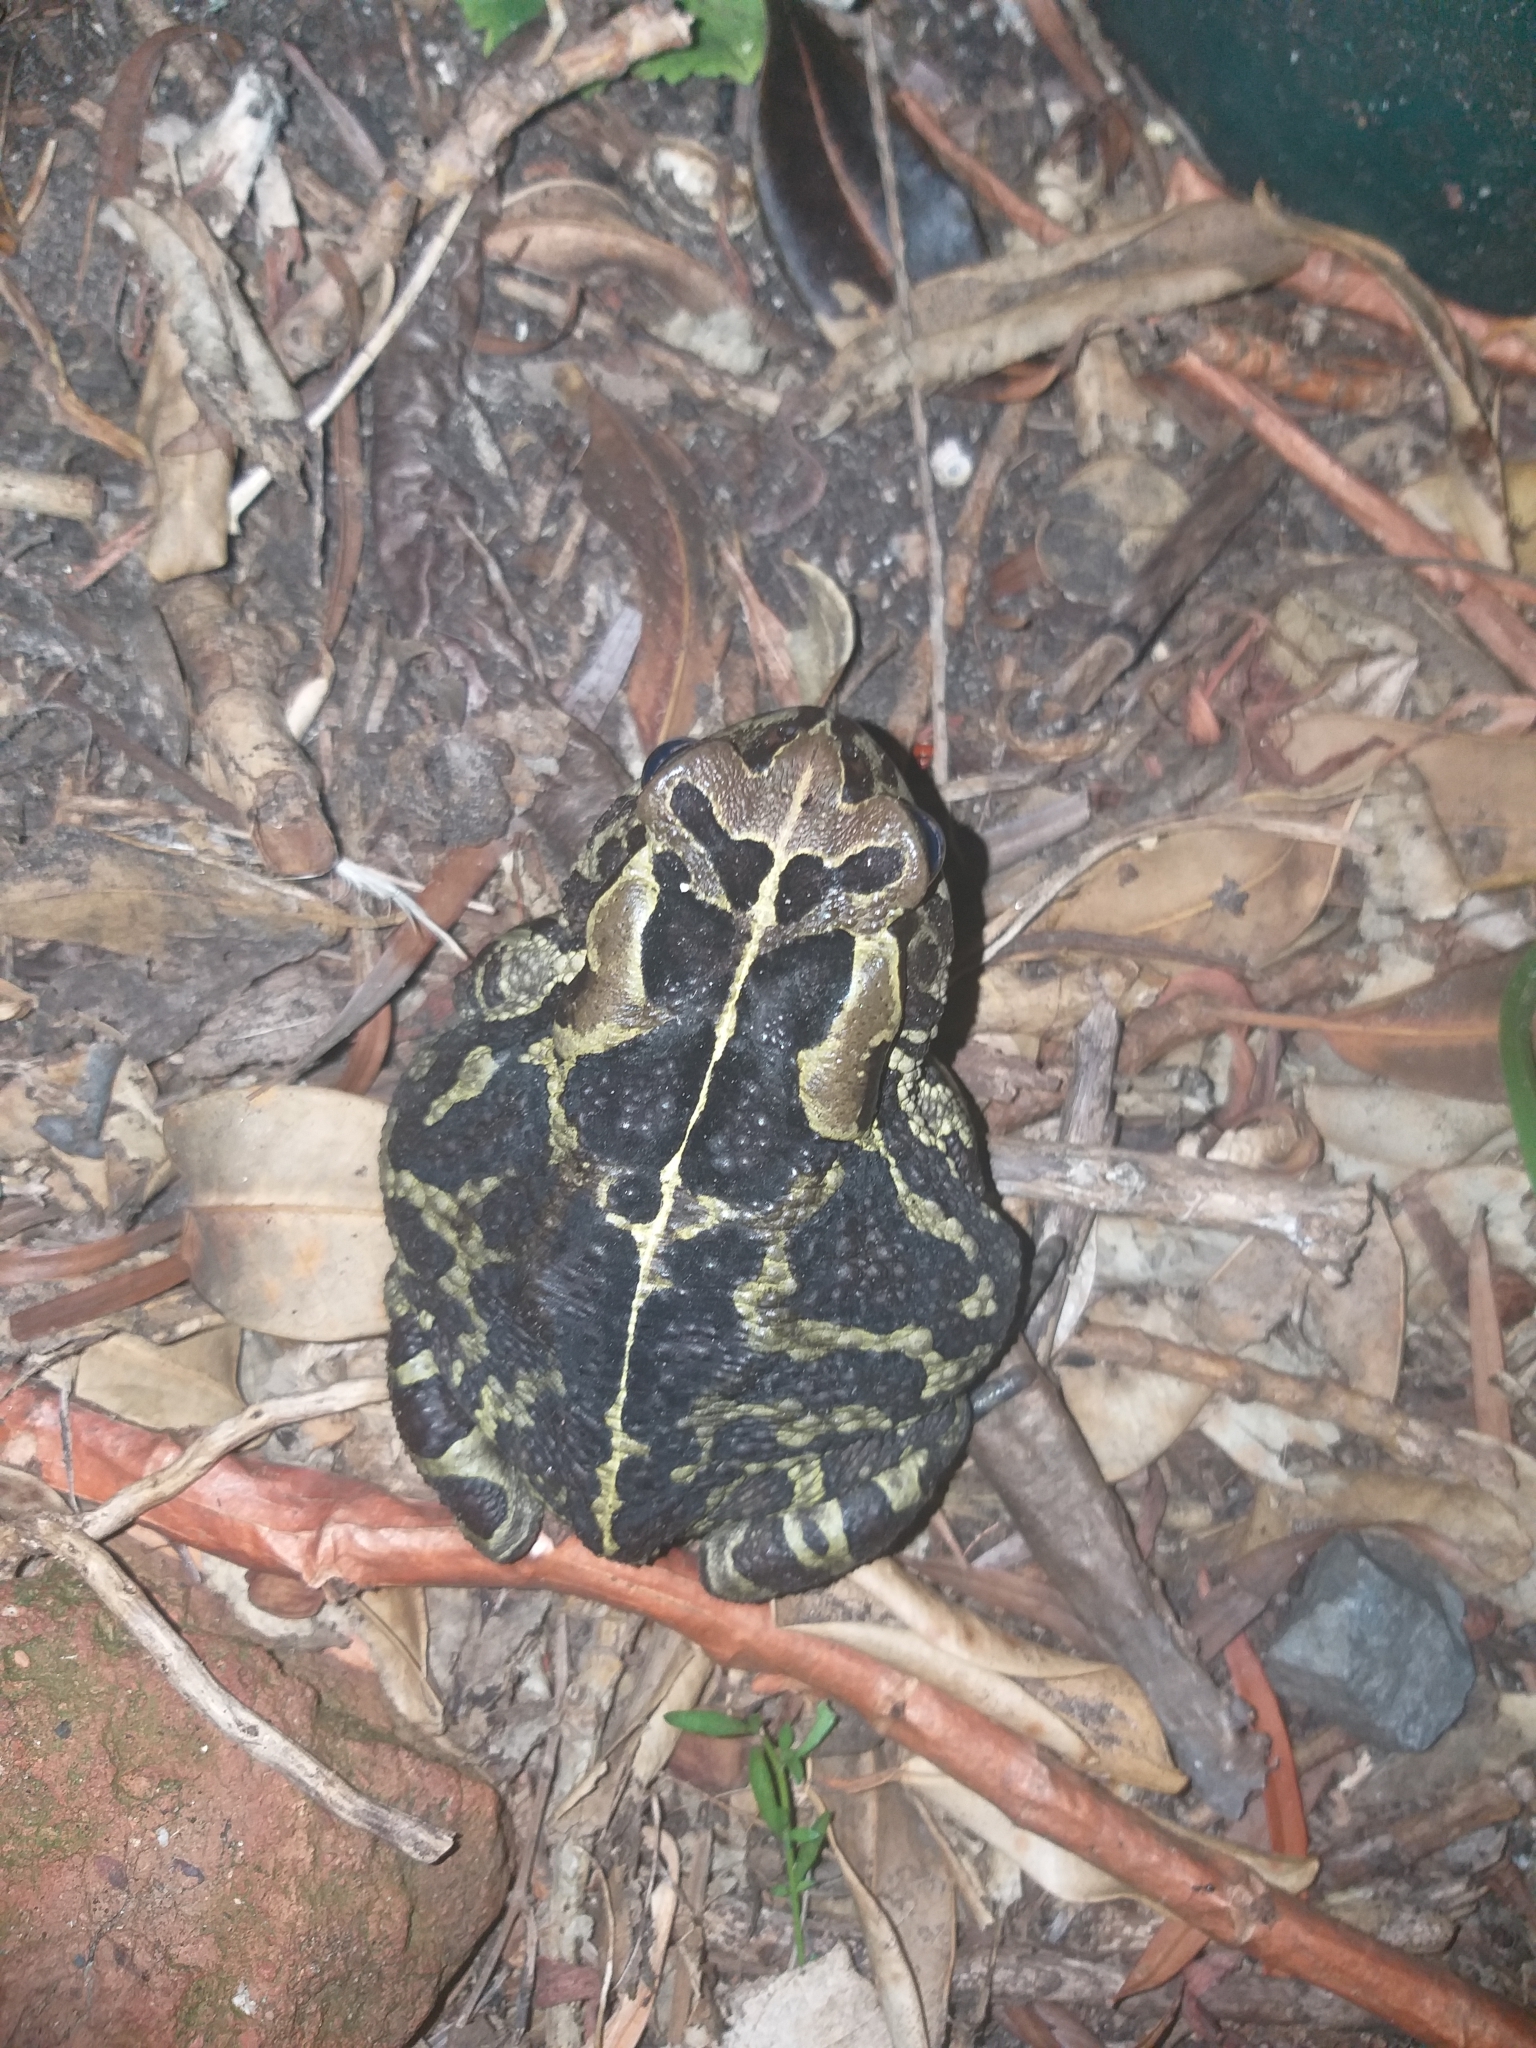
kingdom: Animalia
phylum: Chordata
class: Amphibia
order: Anura
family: Bufonidae
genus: Sclerophrys
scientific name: Sclerophrys pantherina
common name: Panther toad
